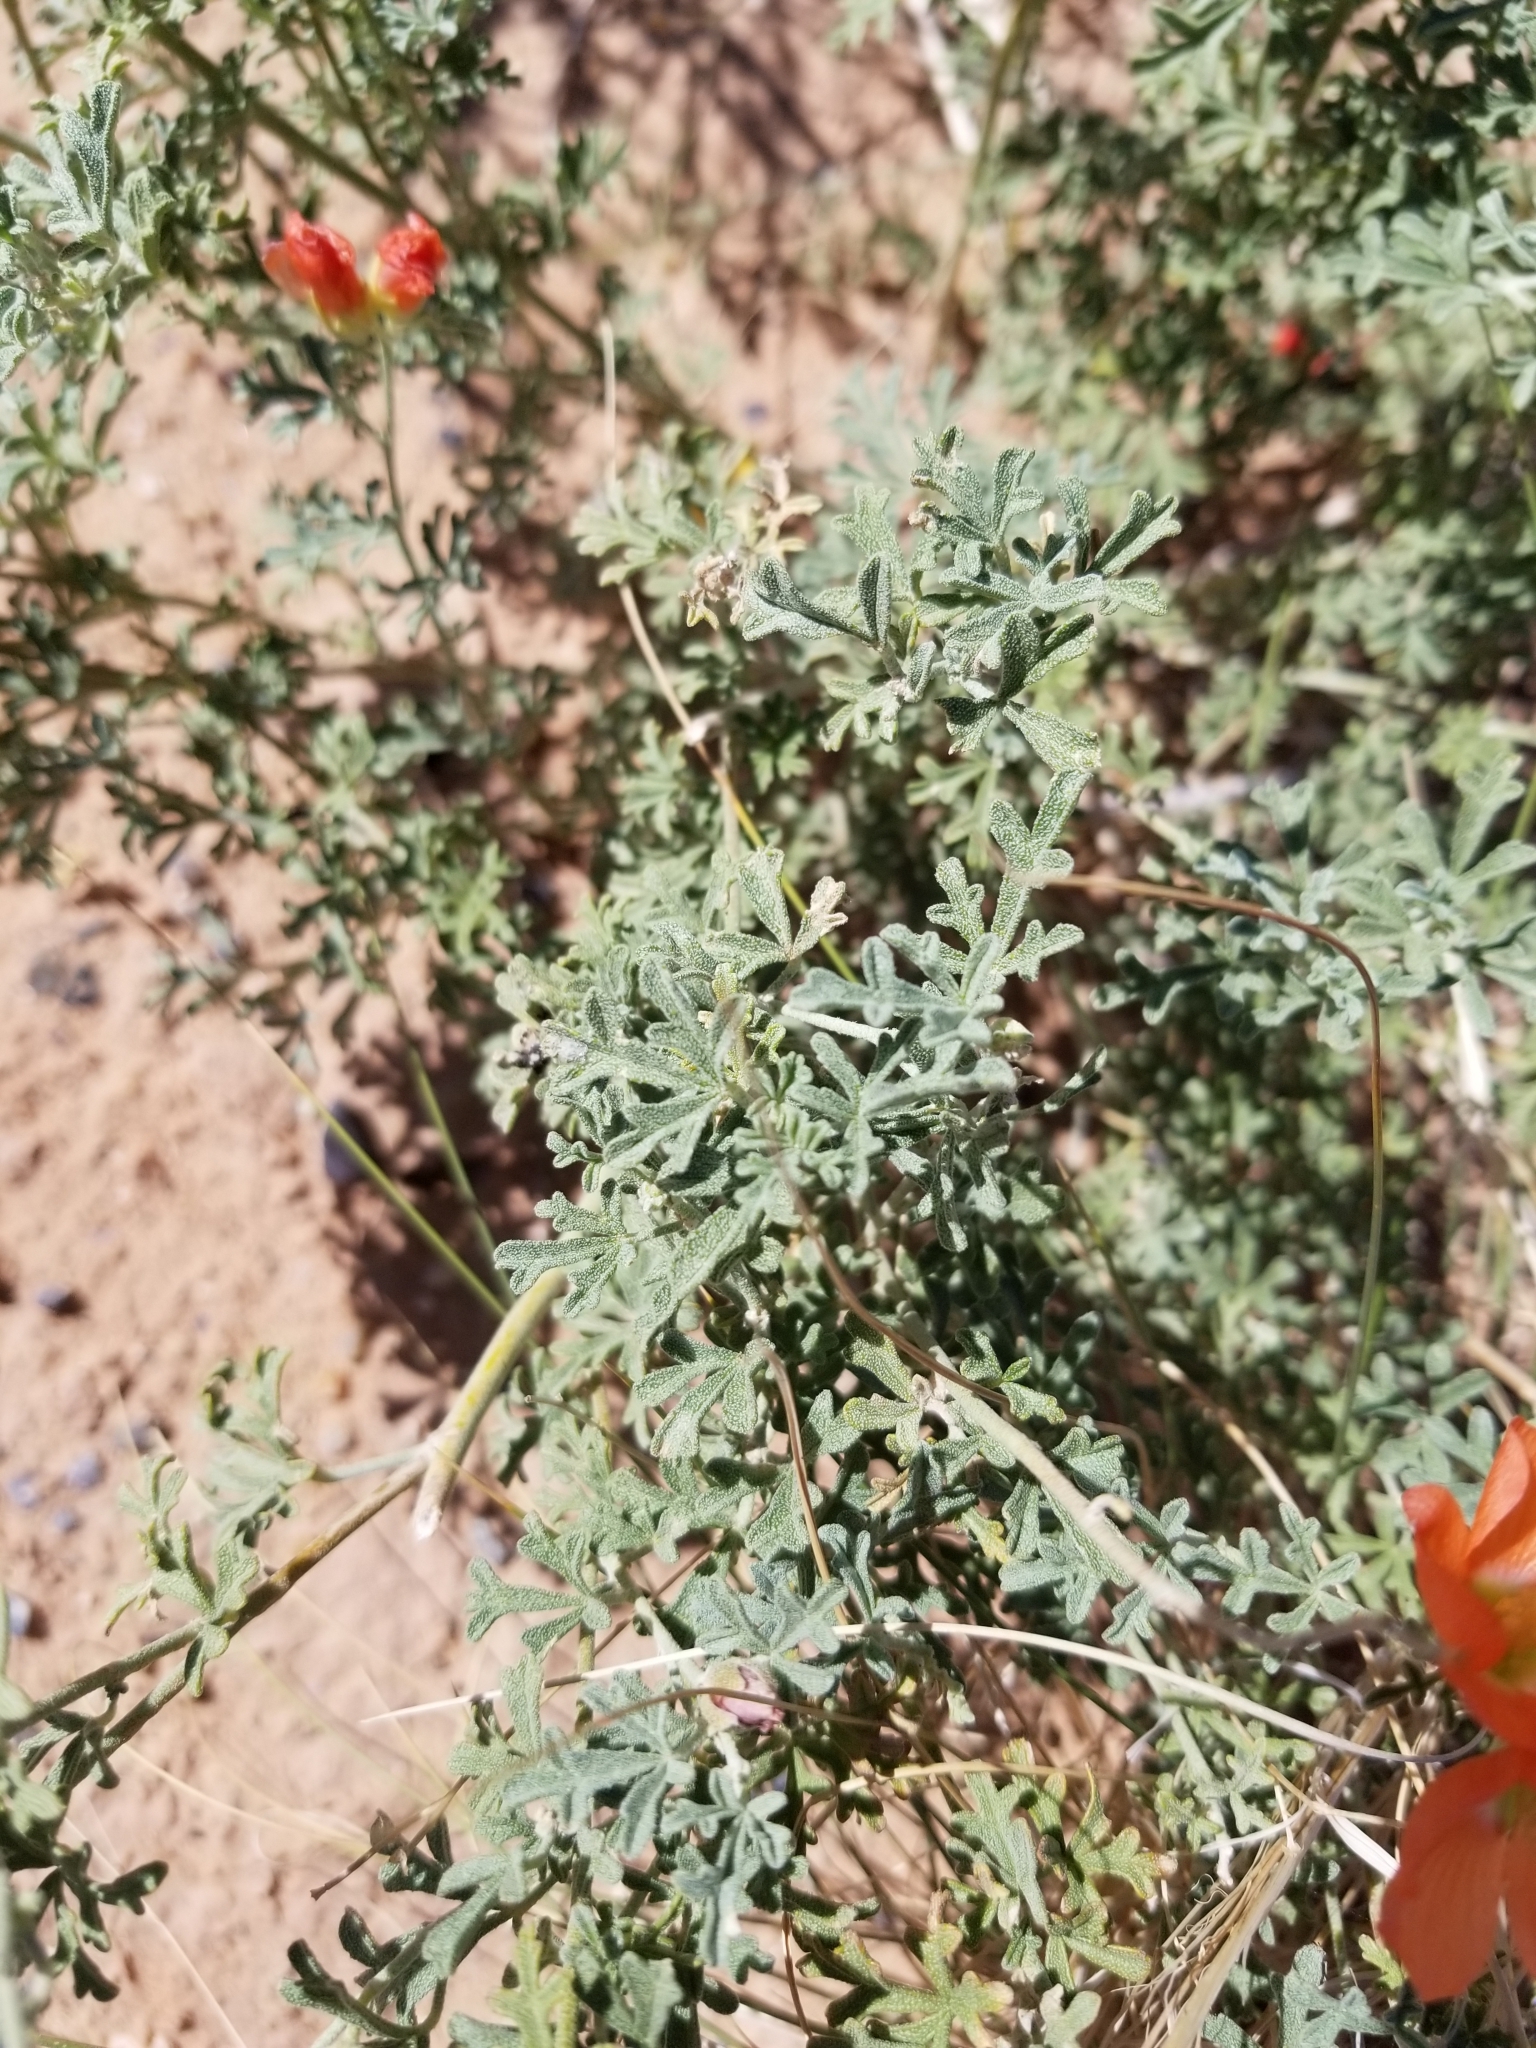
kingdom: Plantae
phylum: Tracheophyta
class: Magnoliopsida
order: Malvales
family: Malvaceae
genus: Sphaeralcea
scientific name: Sphaeralcea coccinea
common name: Moss-rose
